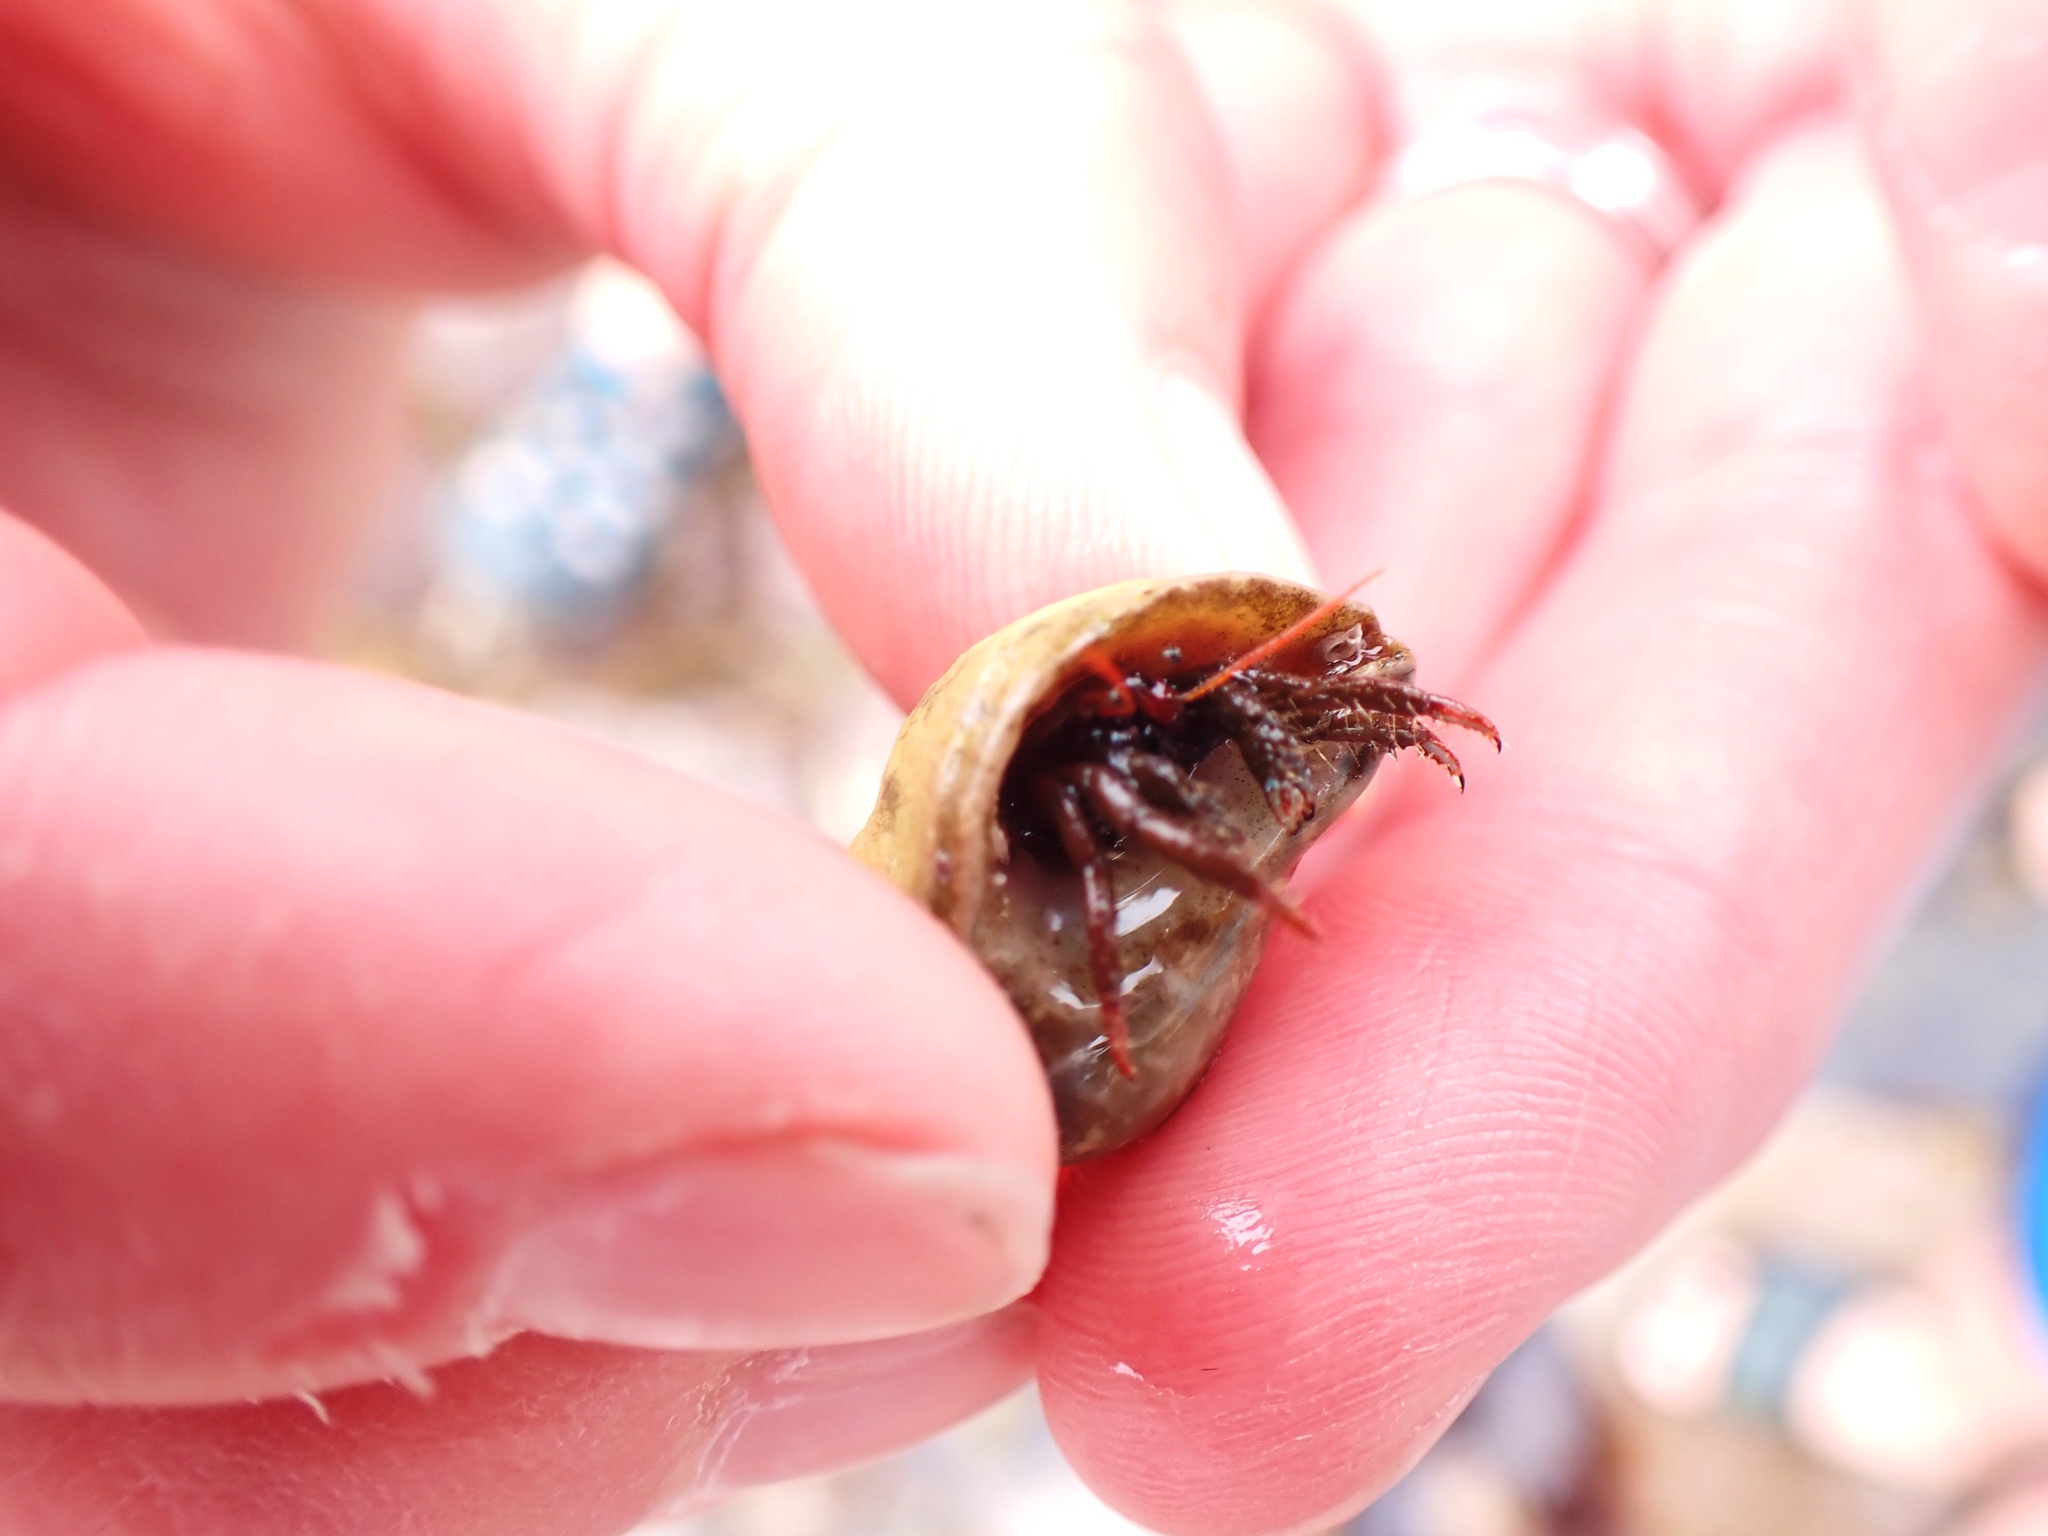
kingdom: Animalia
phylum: Arthropoda
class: Malacostraca
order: Decapoda
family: Diogenidae
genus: Clibanarius
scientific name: Clibanarius erythropus
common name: Hermit crab
